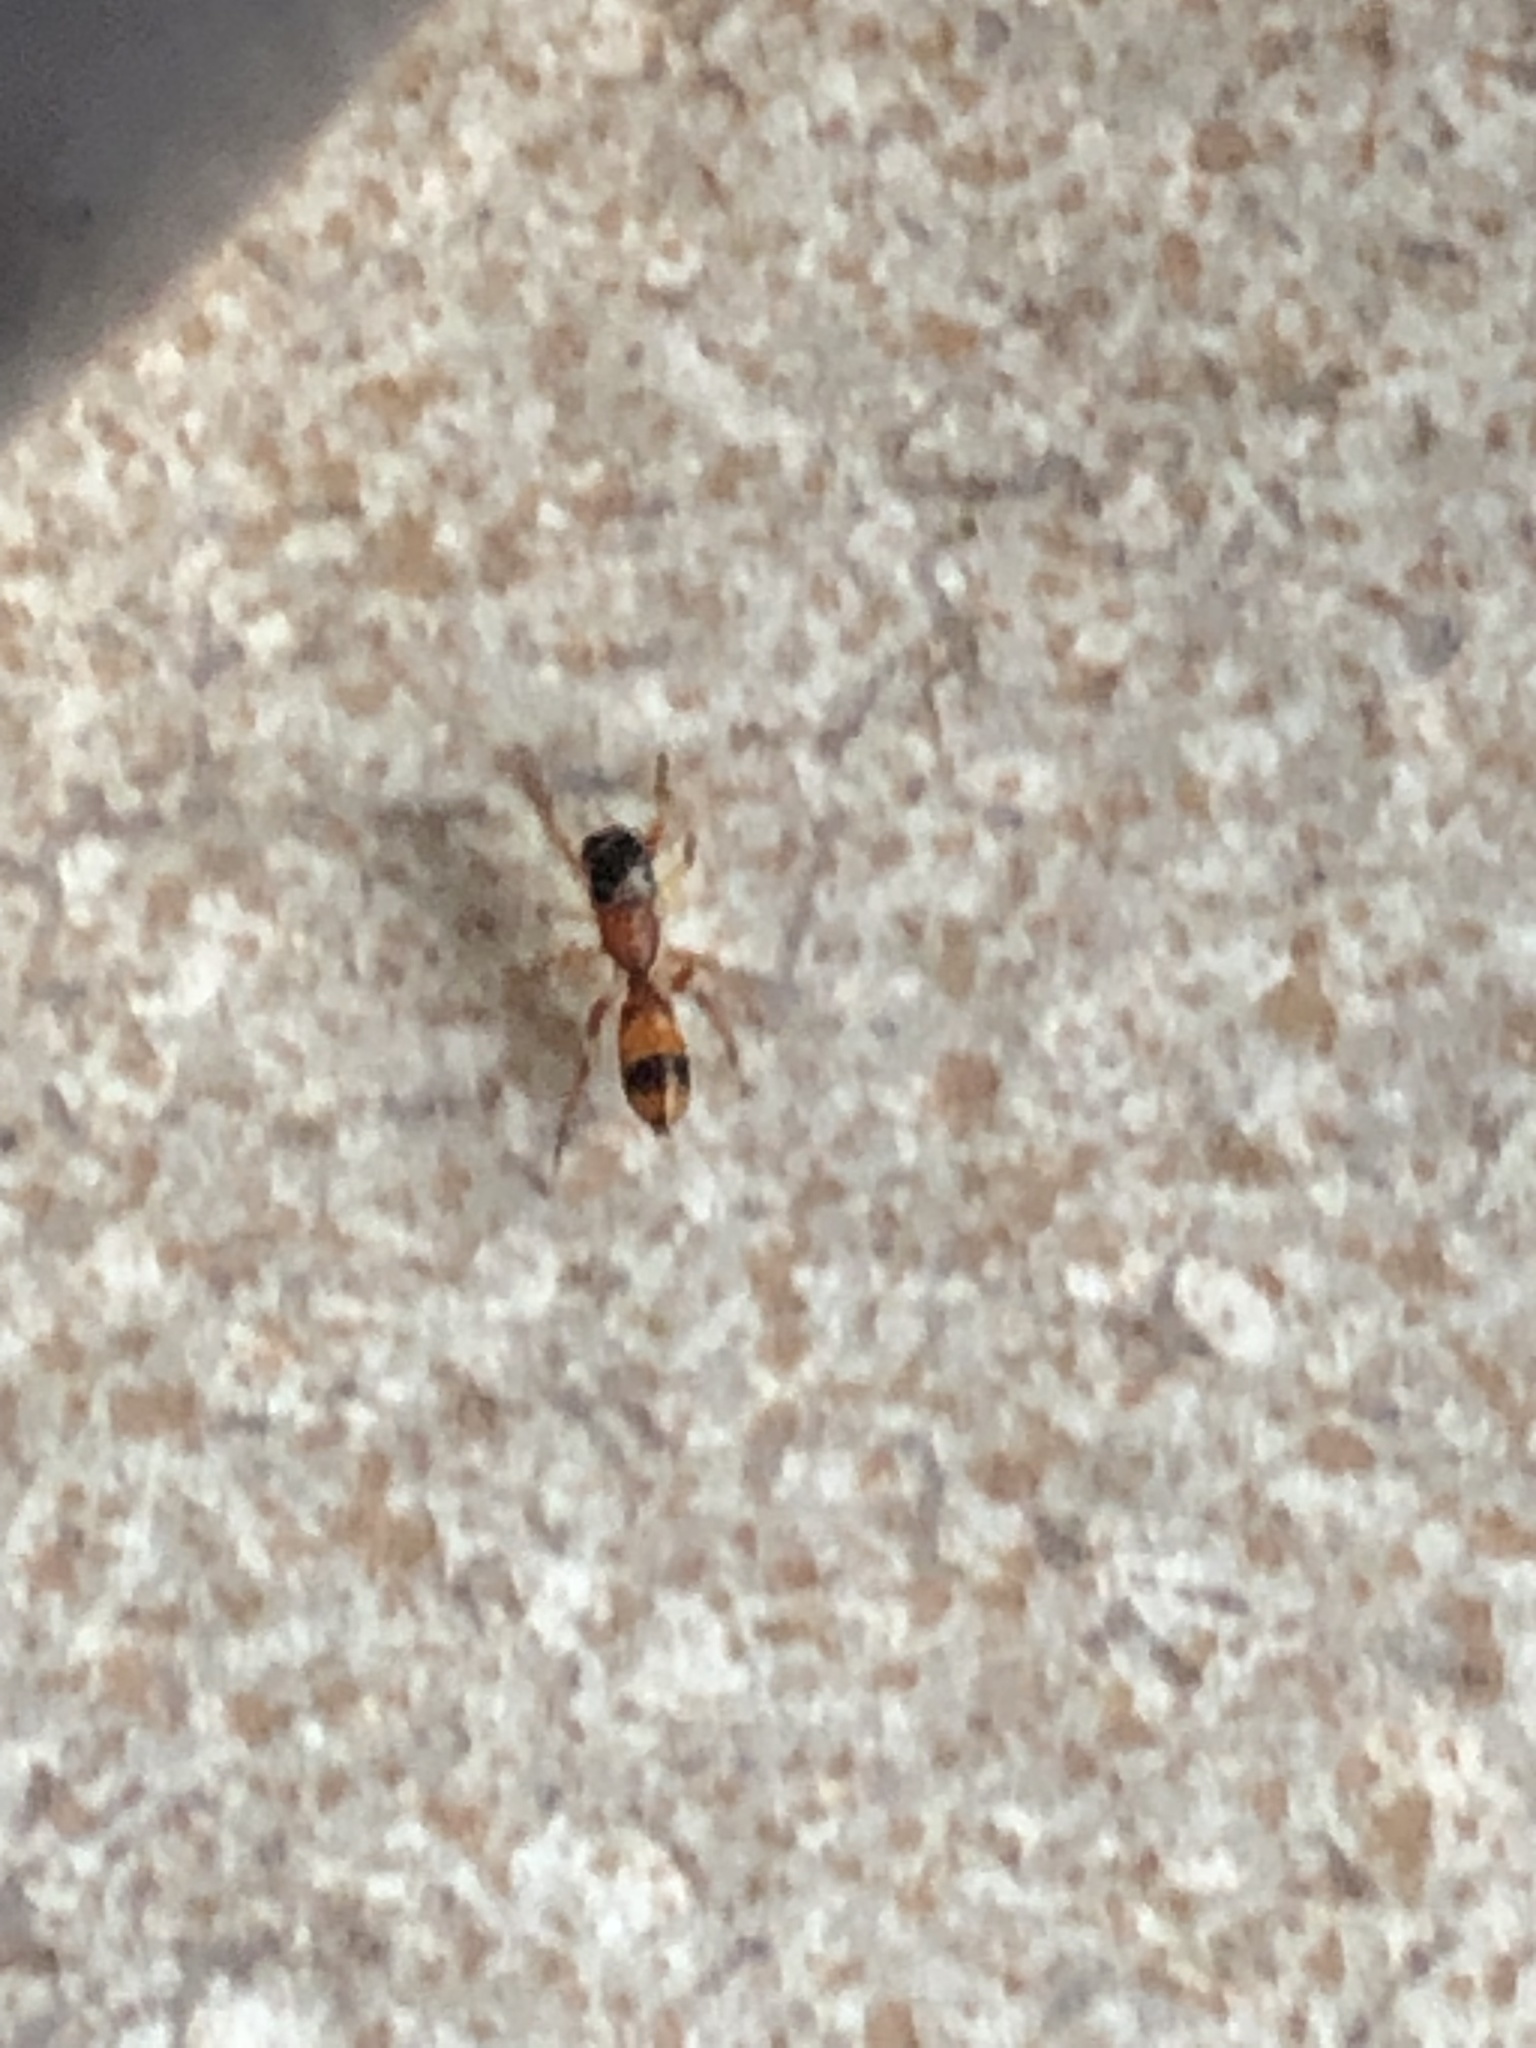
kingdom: Animalia
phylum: Arthropoda
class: Arachnida
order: Araneae
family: Salticidae
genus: Myrmarachne
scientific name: Myrmarachne formicaria
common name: Ant mimic jumping spider
